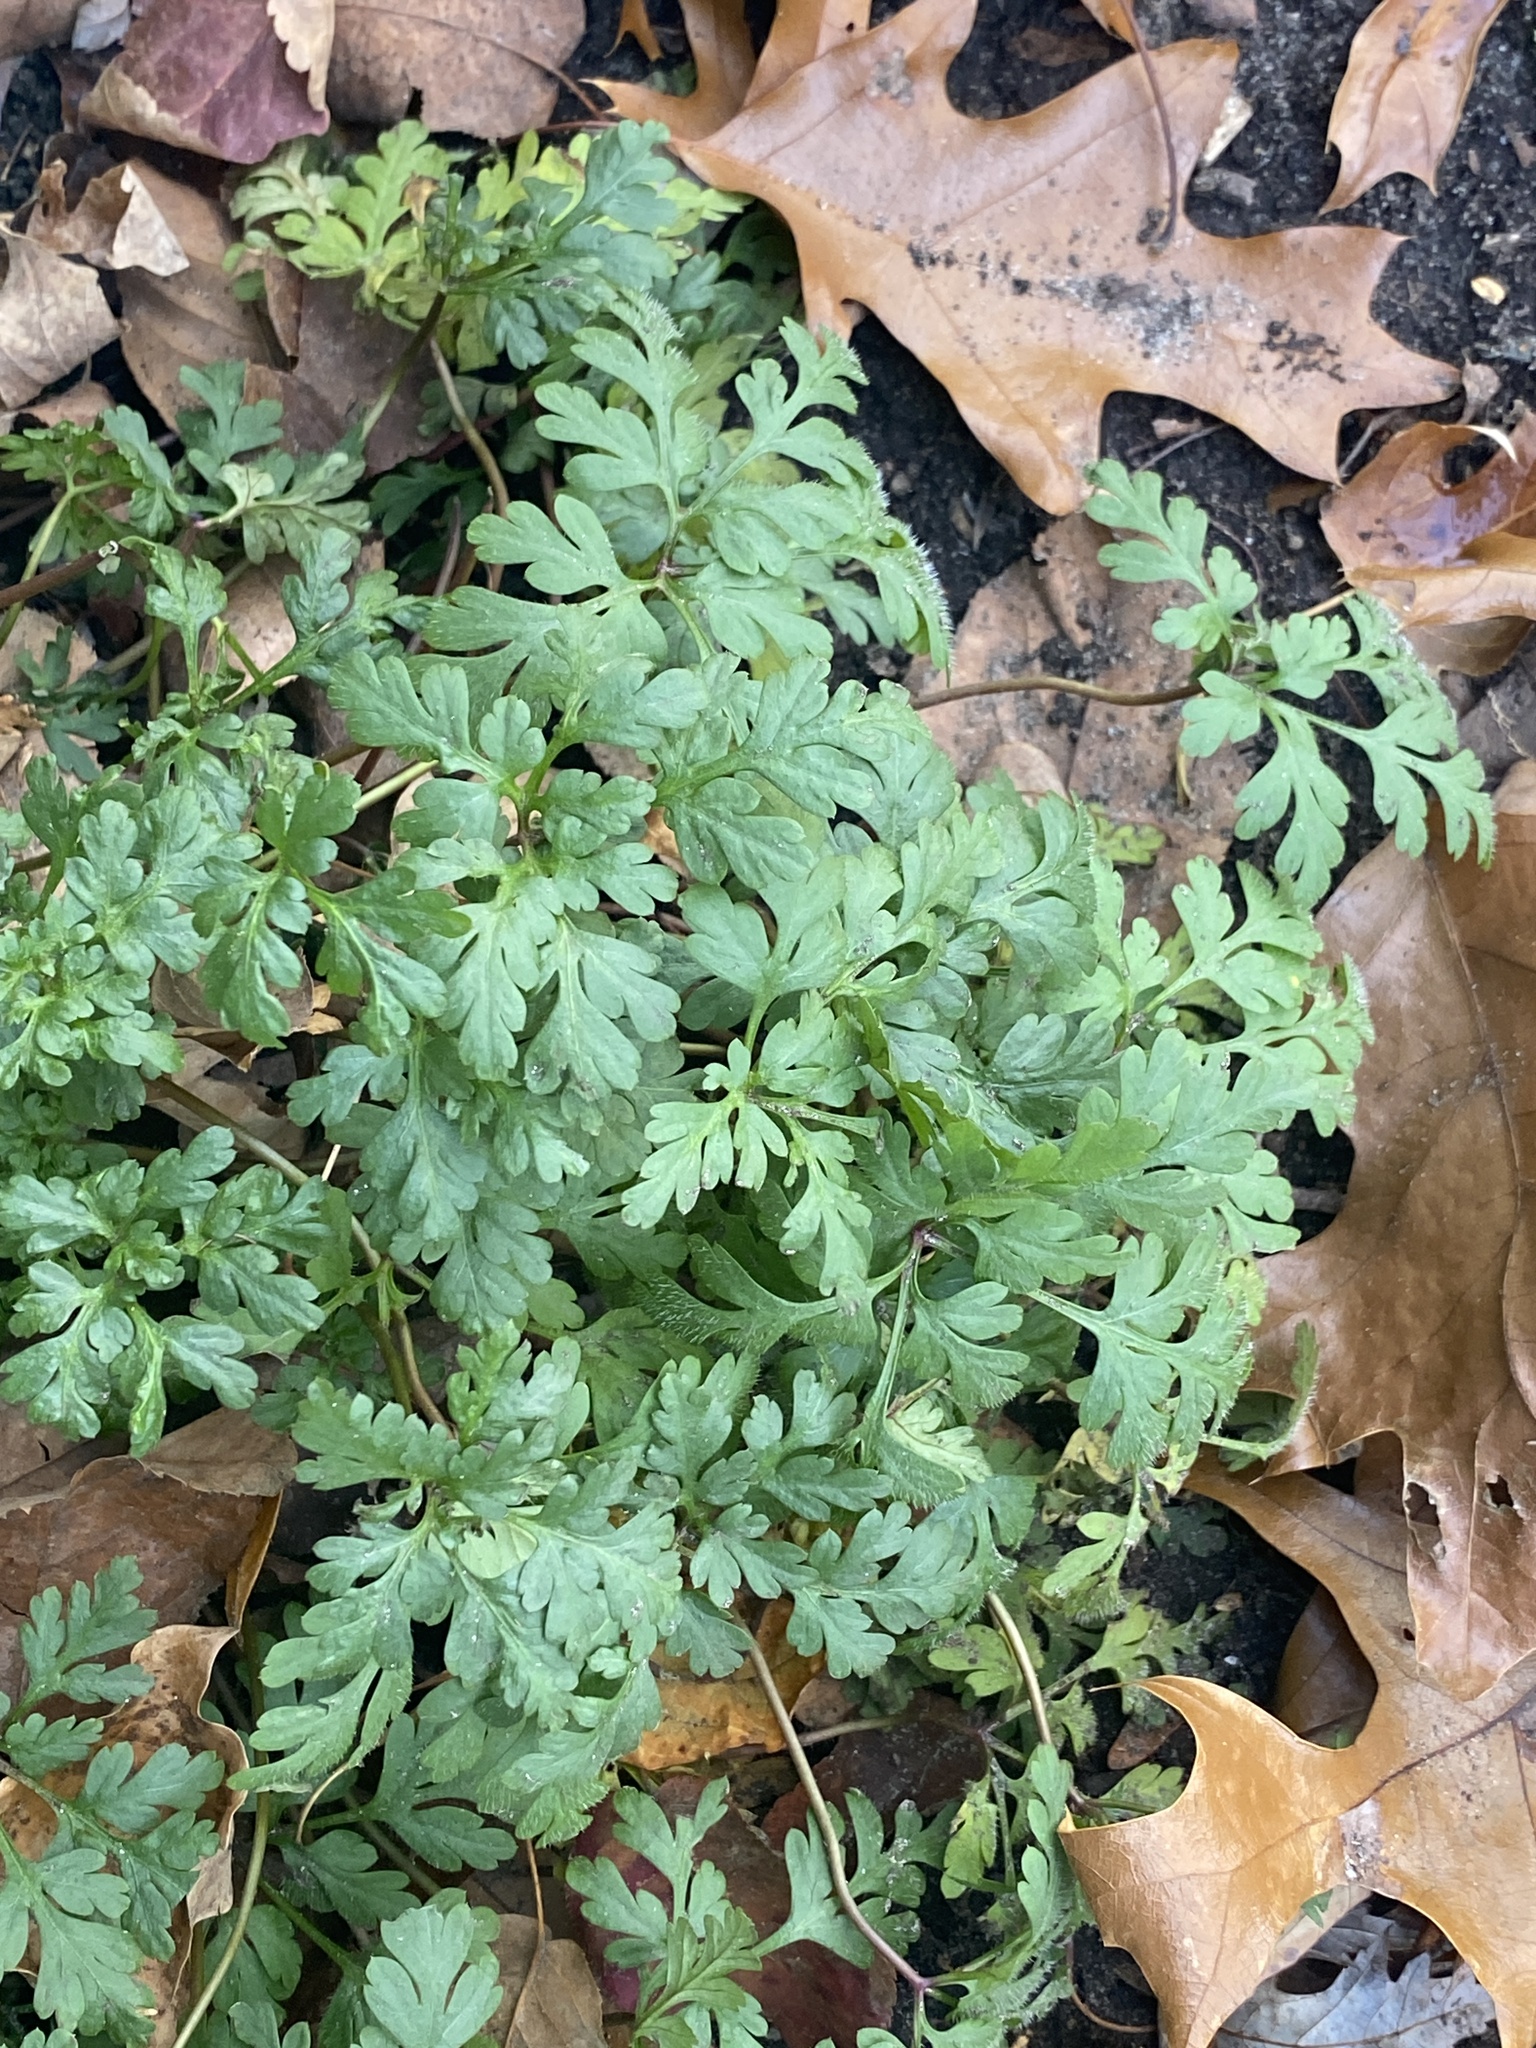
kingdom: Plantae
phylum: Tracheophyta
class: Magnoliopsida
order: Geraniales
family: Geraniaceae
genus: Geranium
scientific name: Geranium robertianum
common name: Herb-robert
